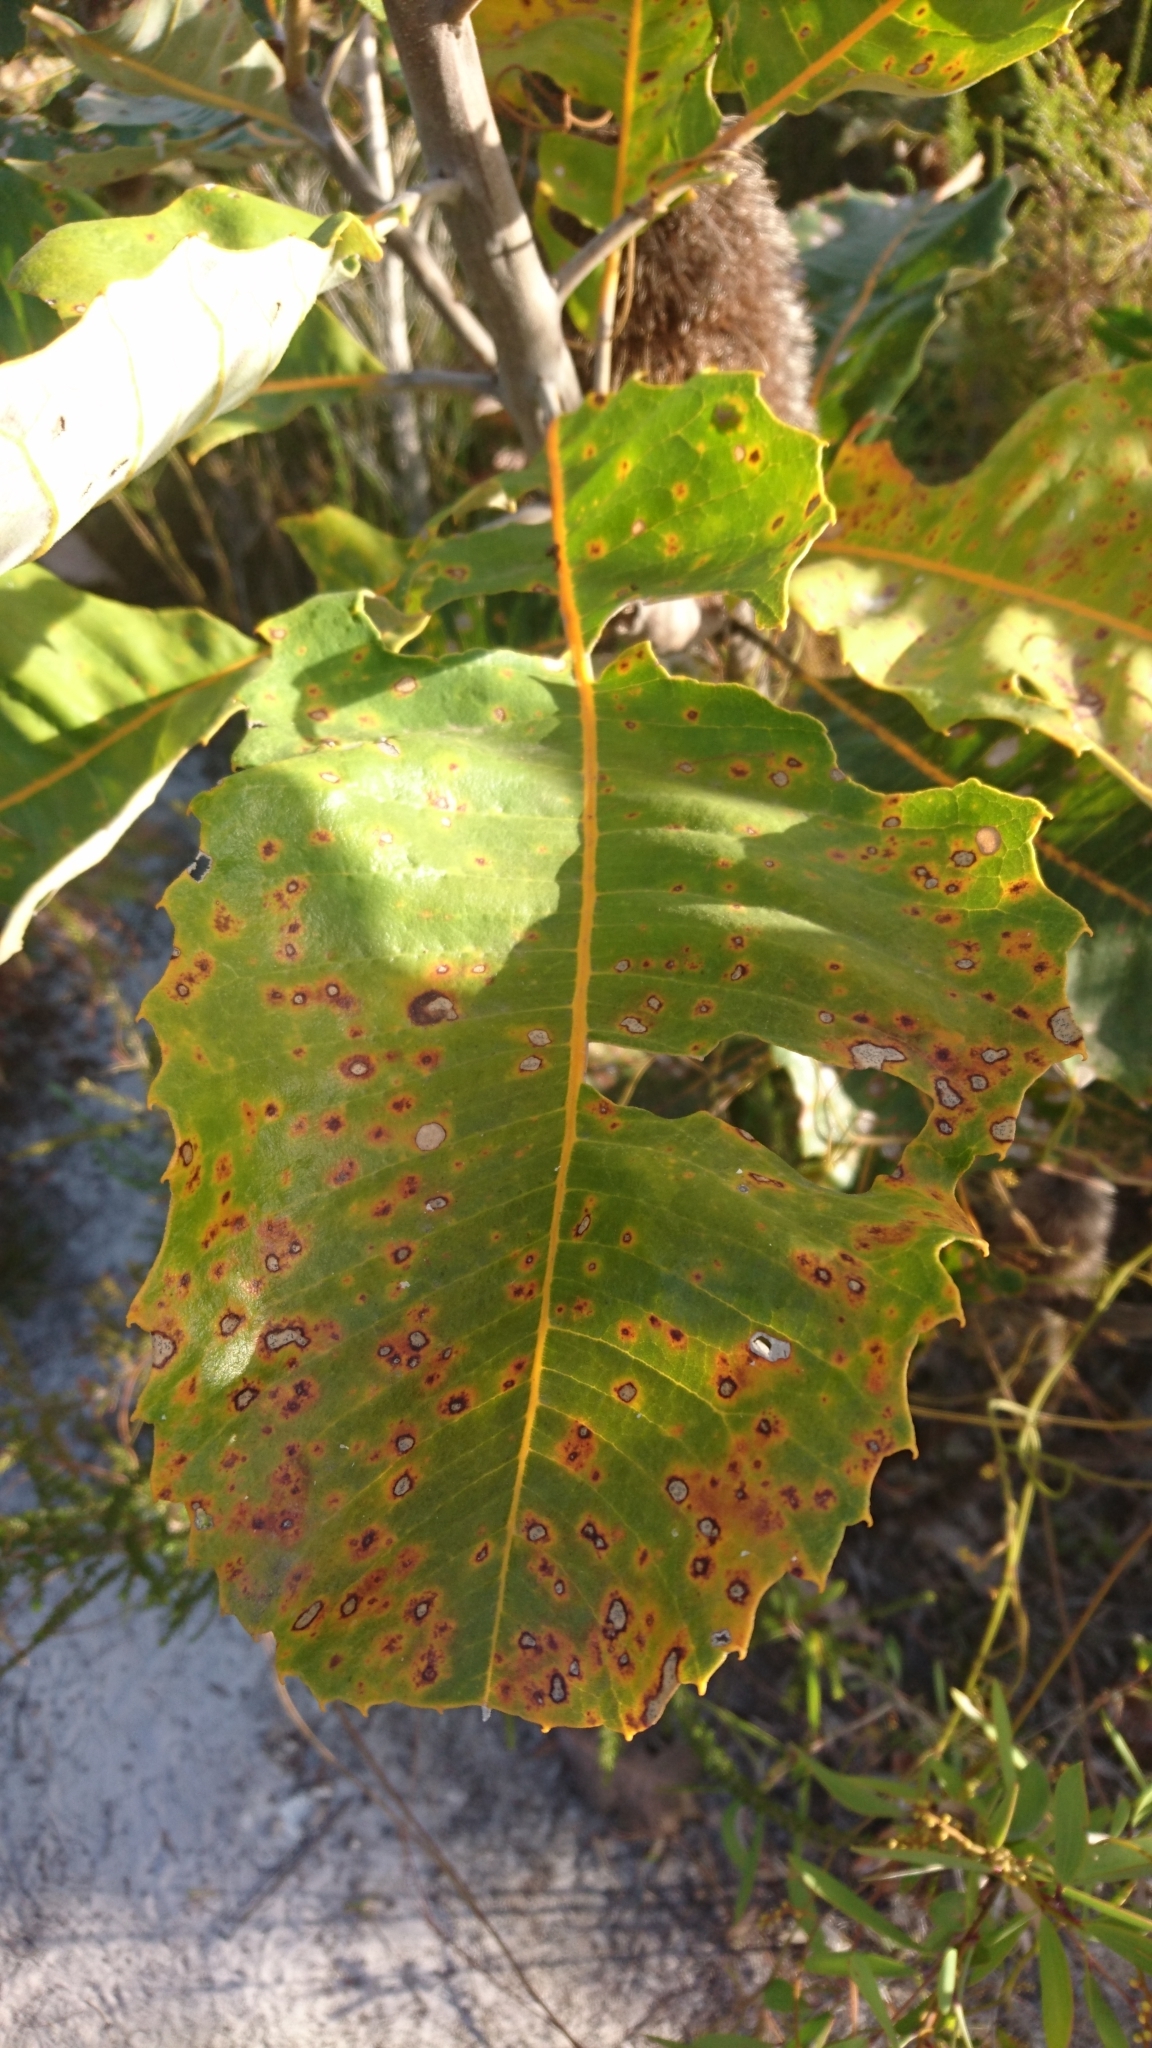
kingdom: Plantae
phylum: Tracheophyta
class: Magnoliopsida
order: Proteales
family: Proteaceae
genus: Banksia
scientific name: Banksia robur
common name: Broadleaf banksia
